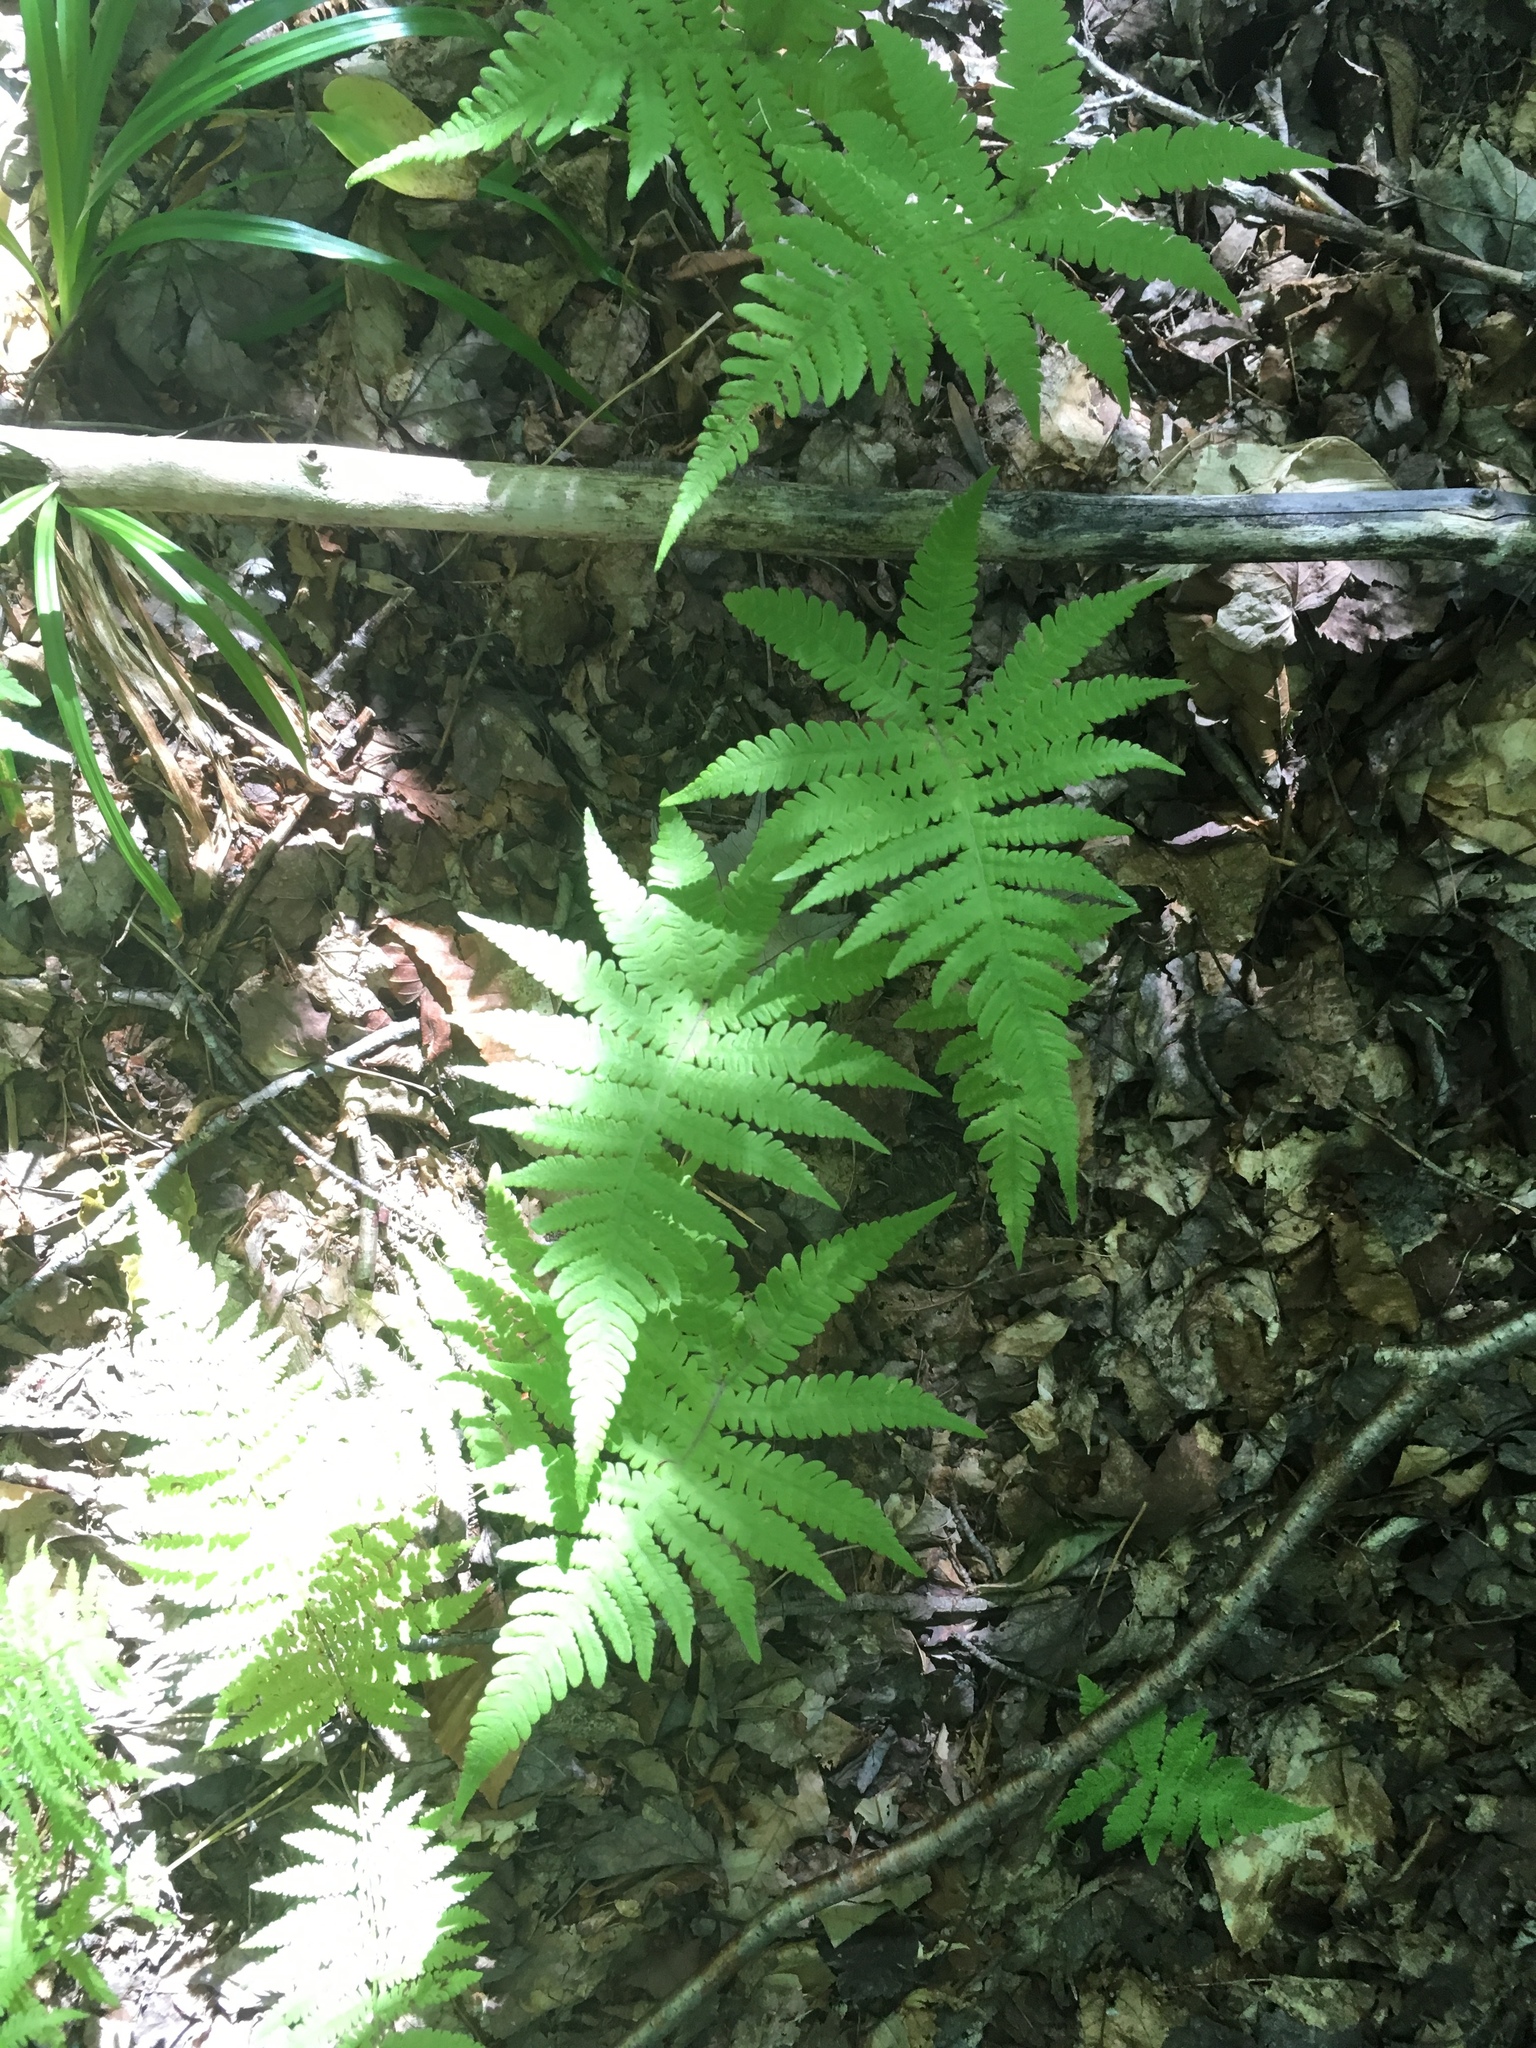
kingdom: Plantae
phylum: Tracheophyta
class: Polypodiopsida
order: Polypodiales
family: Thelypteridaceae
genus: Phegopteris
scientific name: Phegopteris connectilis
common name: Beech fern
